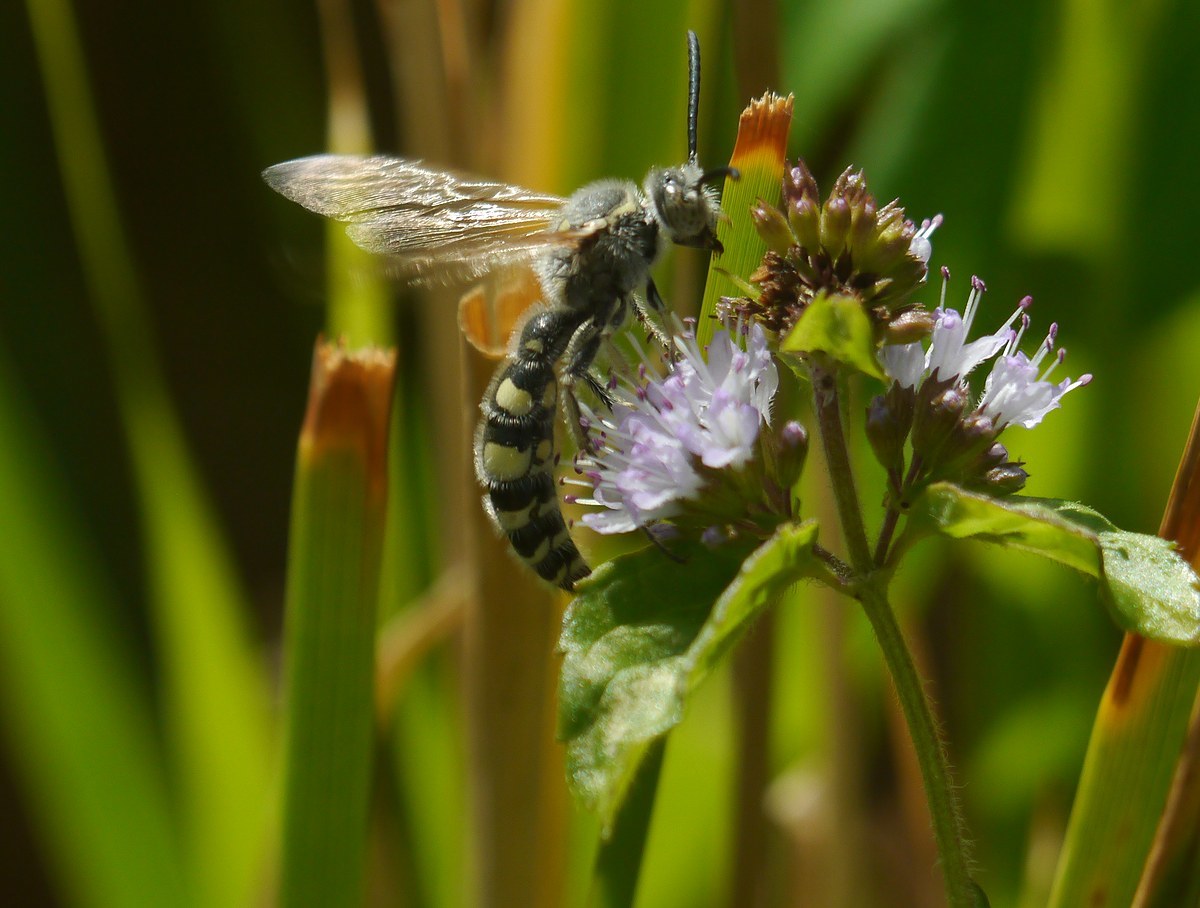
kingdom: Animalia
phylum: Arthropoda
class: Insecta
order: Hymenoptera
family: Vespidae
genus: Vespa
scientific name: Vespa sexmaculata
